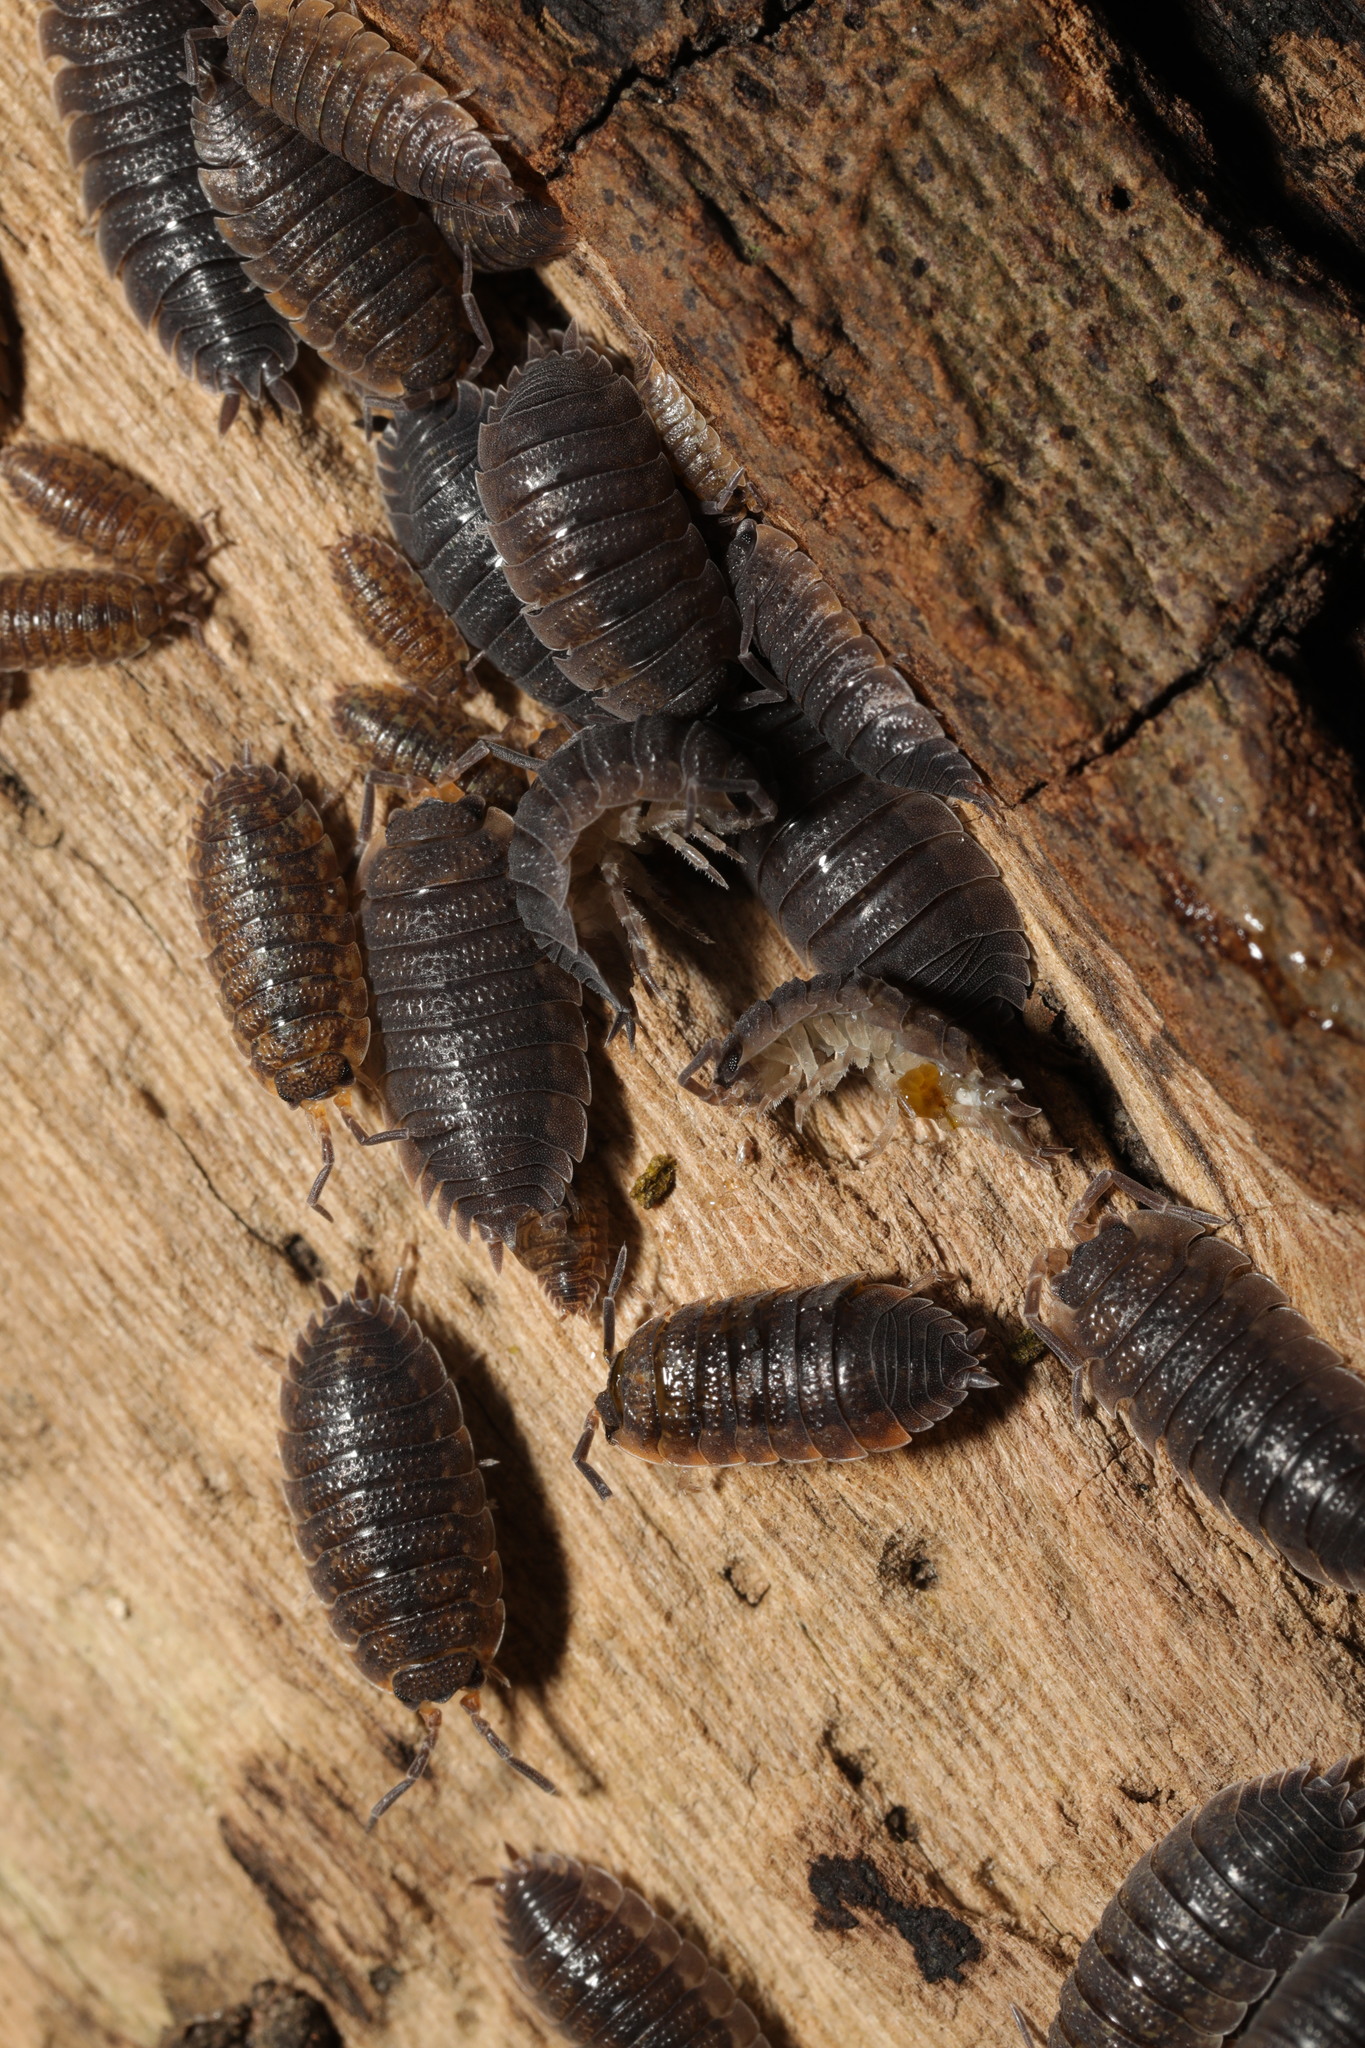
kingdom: Animalia
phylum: Arthropoda
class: Malacostraca
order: Isopoda
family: Porcellionidae
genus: Porcellio
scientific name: Porcellio scaber
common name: Common rough woodlouse
